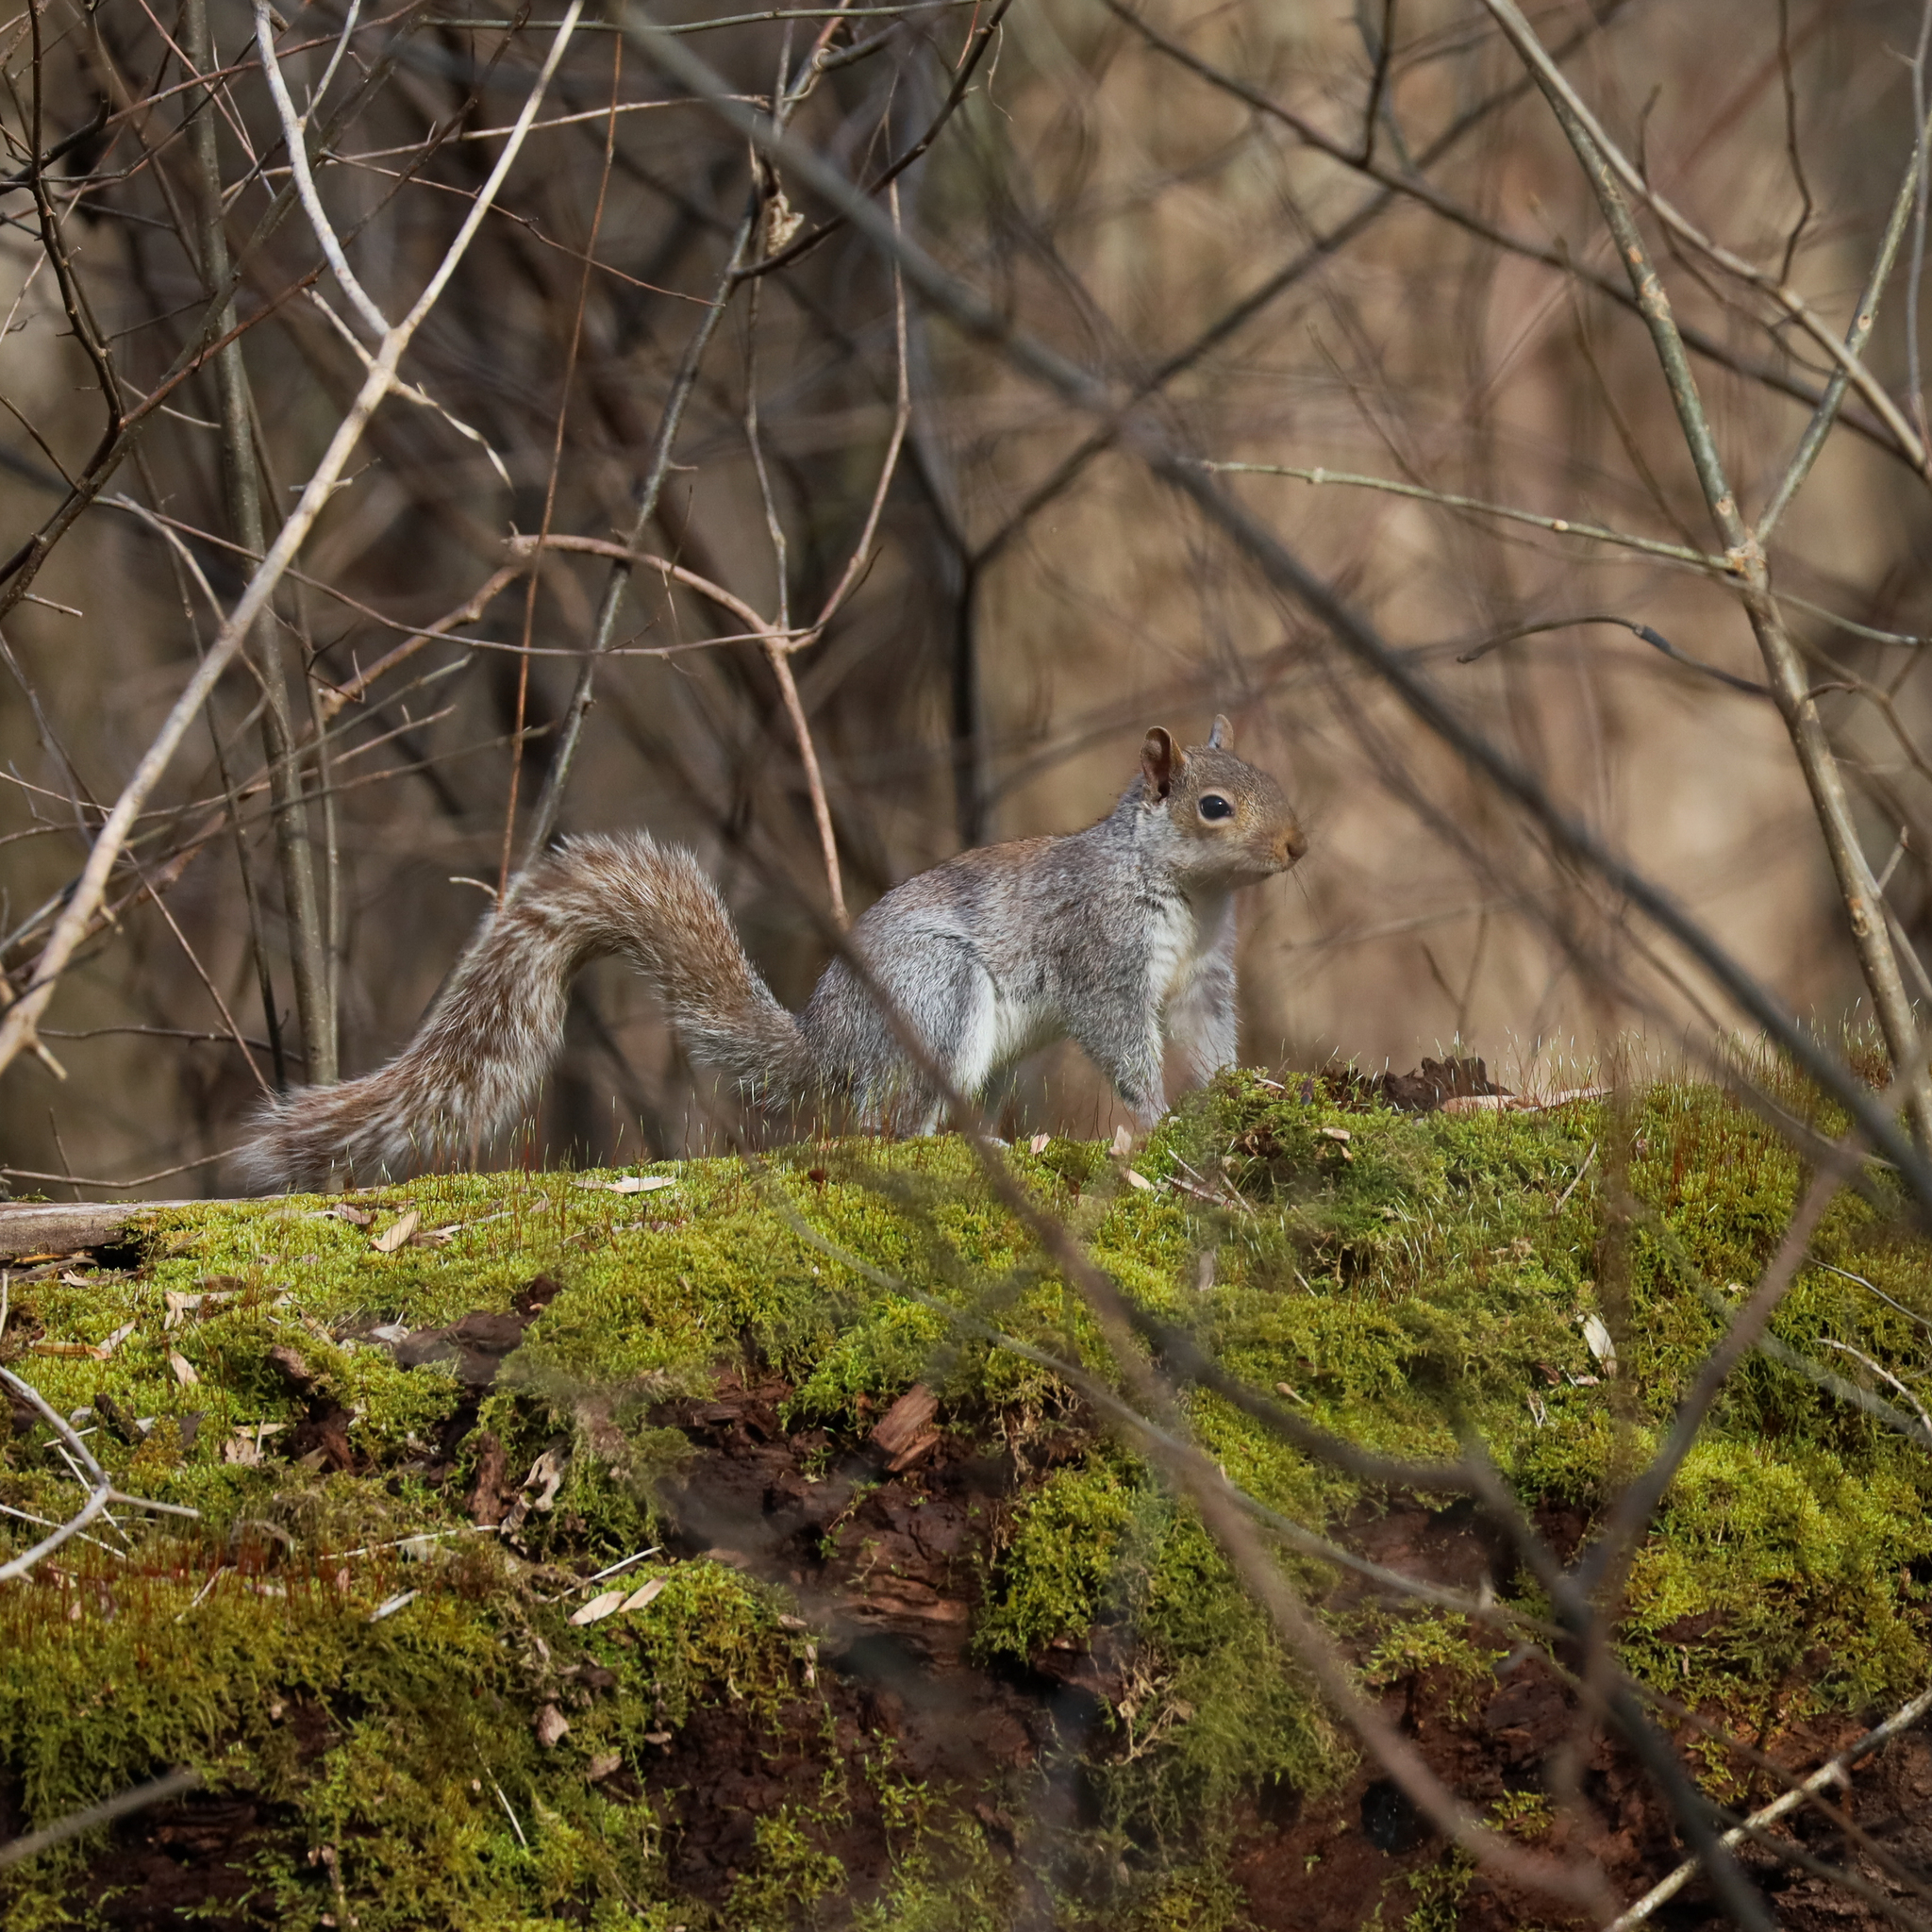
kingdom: Animalia
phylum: Chordata
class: Mammalia
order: Rodentia
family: Sciuridae
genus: Sciurus
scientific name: Sciurus carolinensis
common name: Eastern gray squirrel
